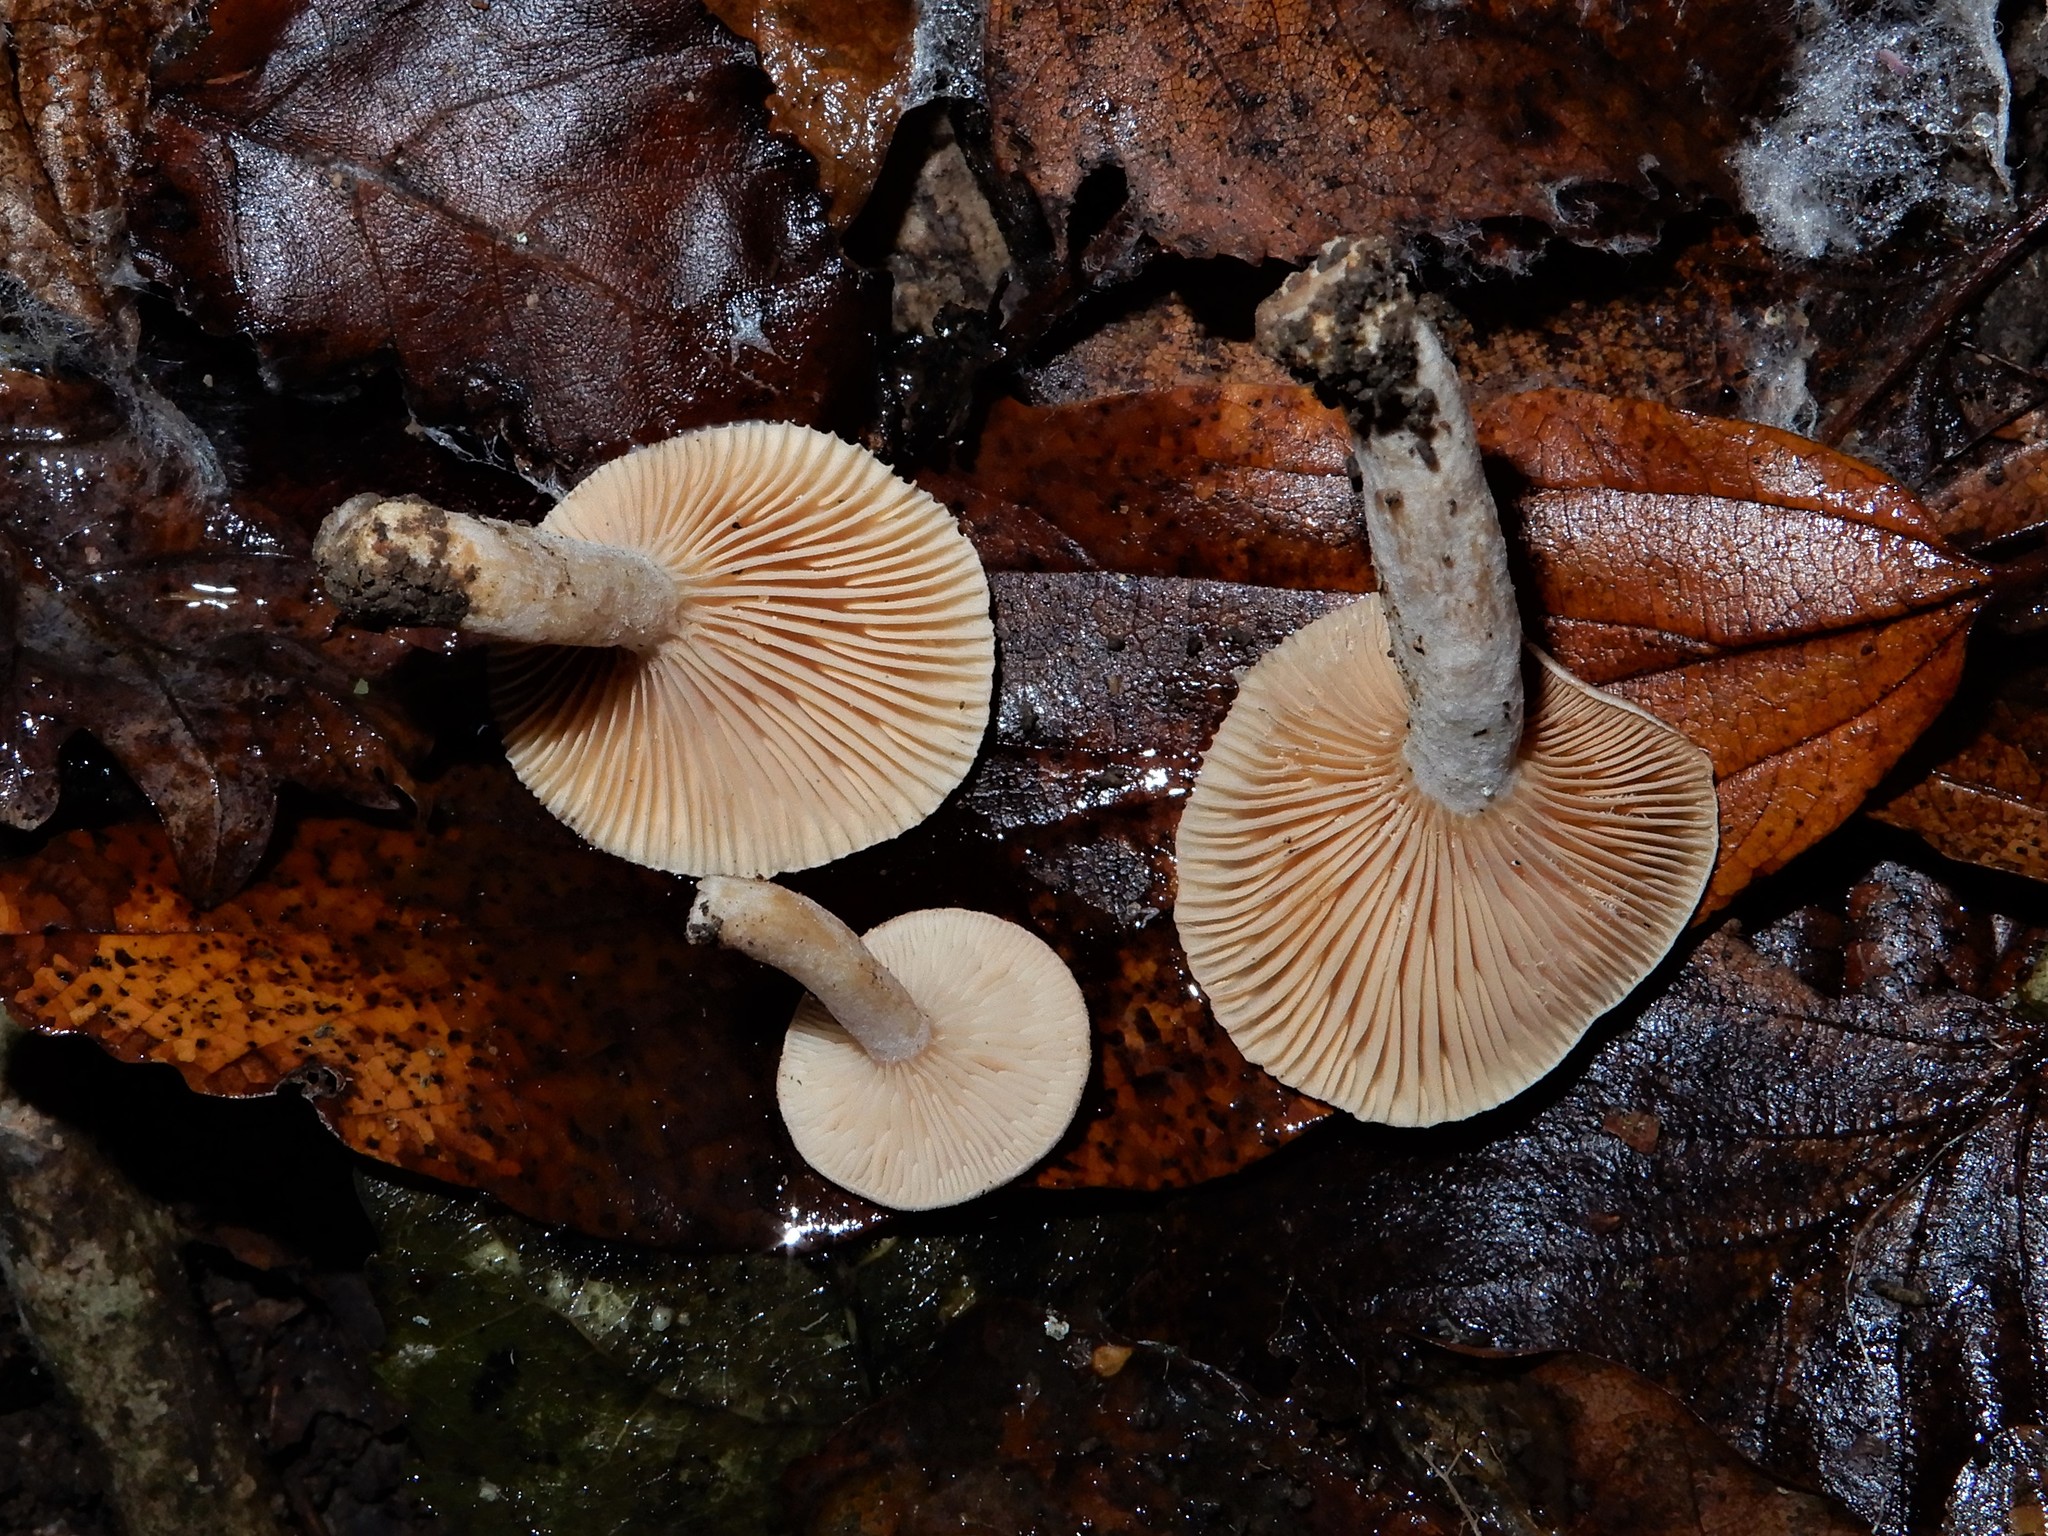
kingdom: Fungi
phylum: Basidiomycota
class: Agaricomycetes
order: Russulales
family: Russulaceae
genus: Lactarius
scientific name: Lactarius glyciosmus
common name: Coconut milkcap
